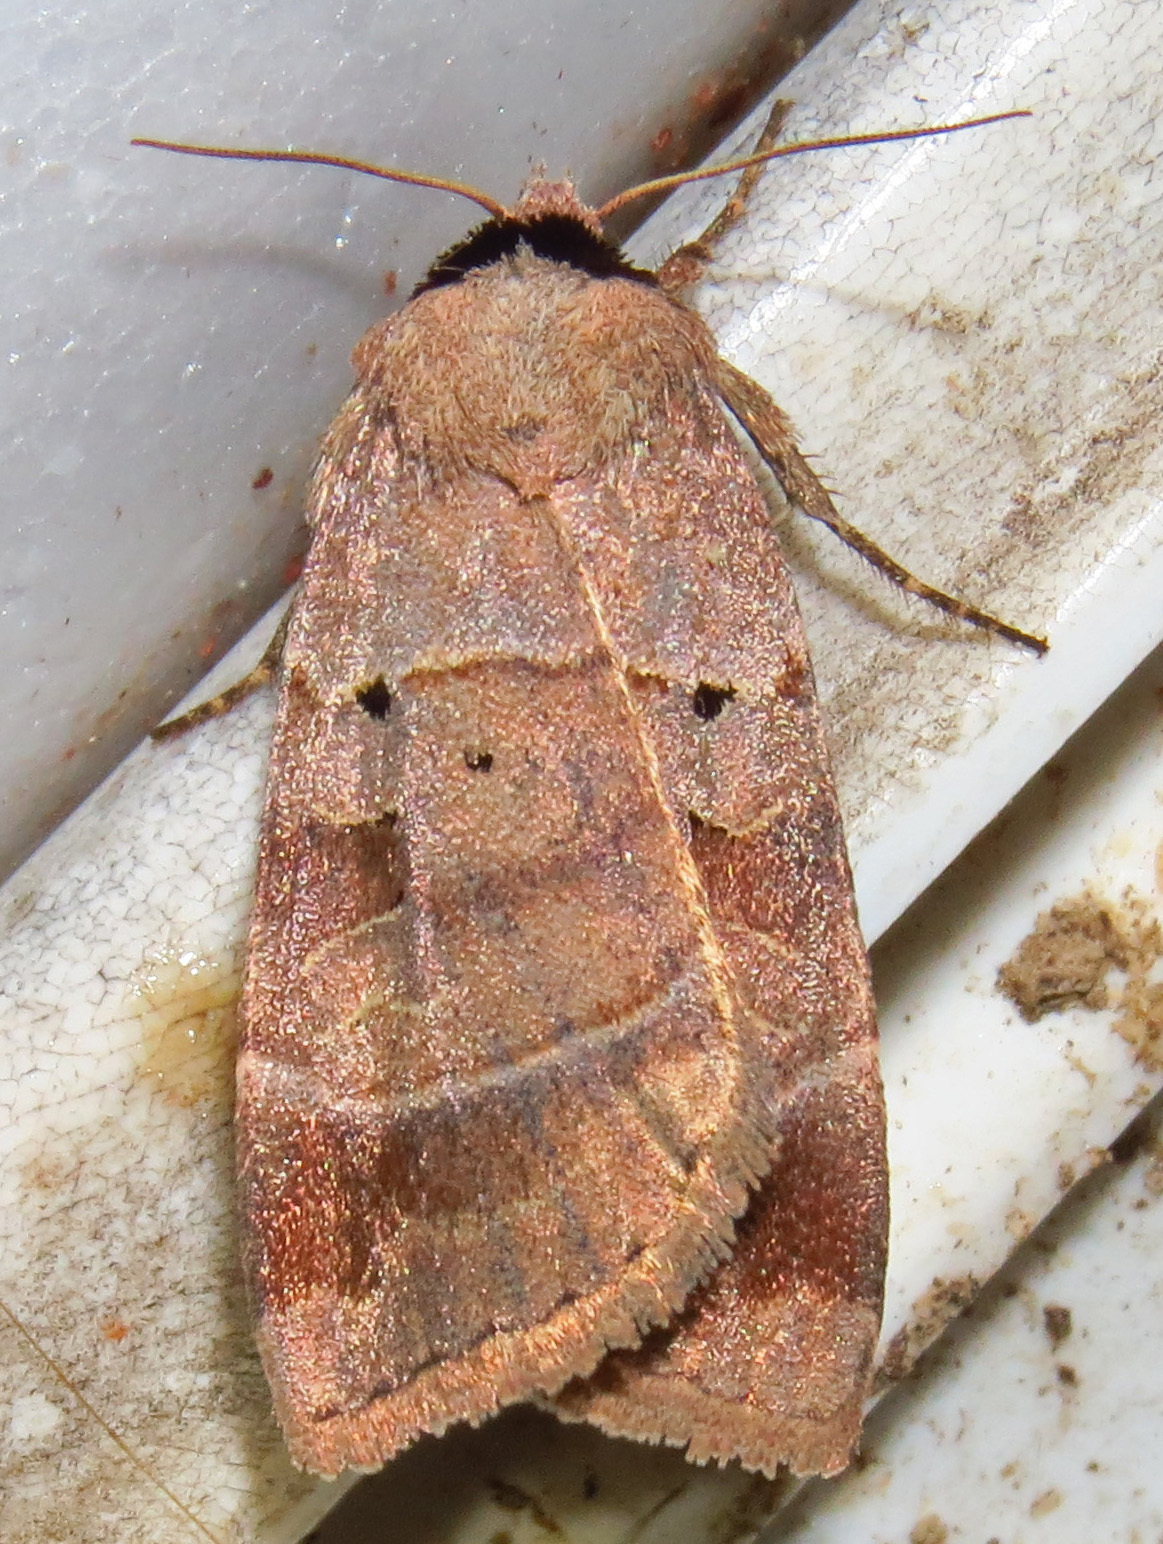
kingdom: Animalia
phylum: Arthropoda
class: Insecta
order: Lepidoptera
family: Noctuidae
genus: Agnorisma
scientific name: Agnorisma badinodis
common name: Pale-banded dart
